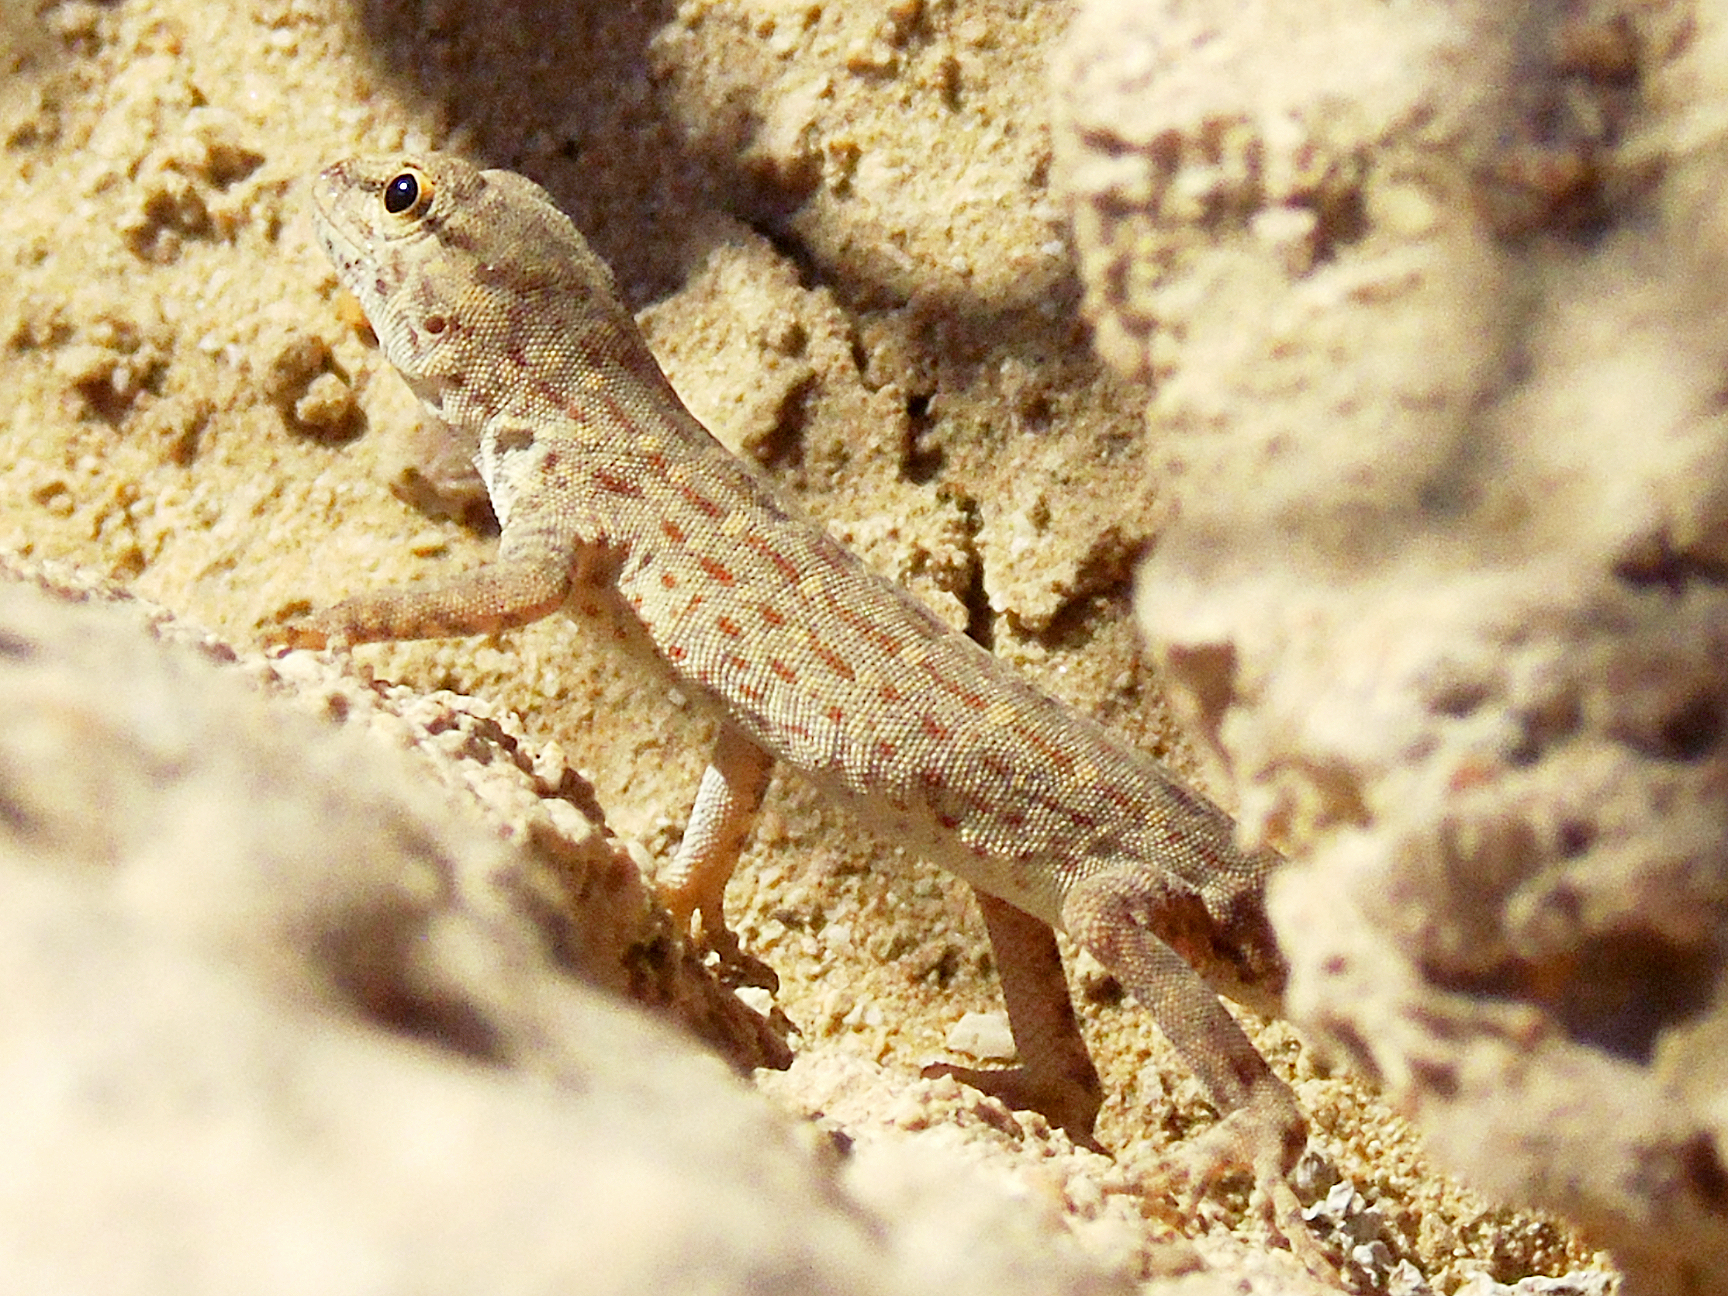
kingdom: Animalia
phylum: Chordata
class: Squamata
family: Sphaerodactylidae
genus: Pristurus
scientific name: Pristurus rupestris
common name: Blanford’s semaphore gecko
